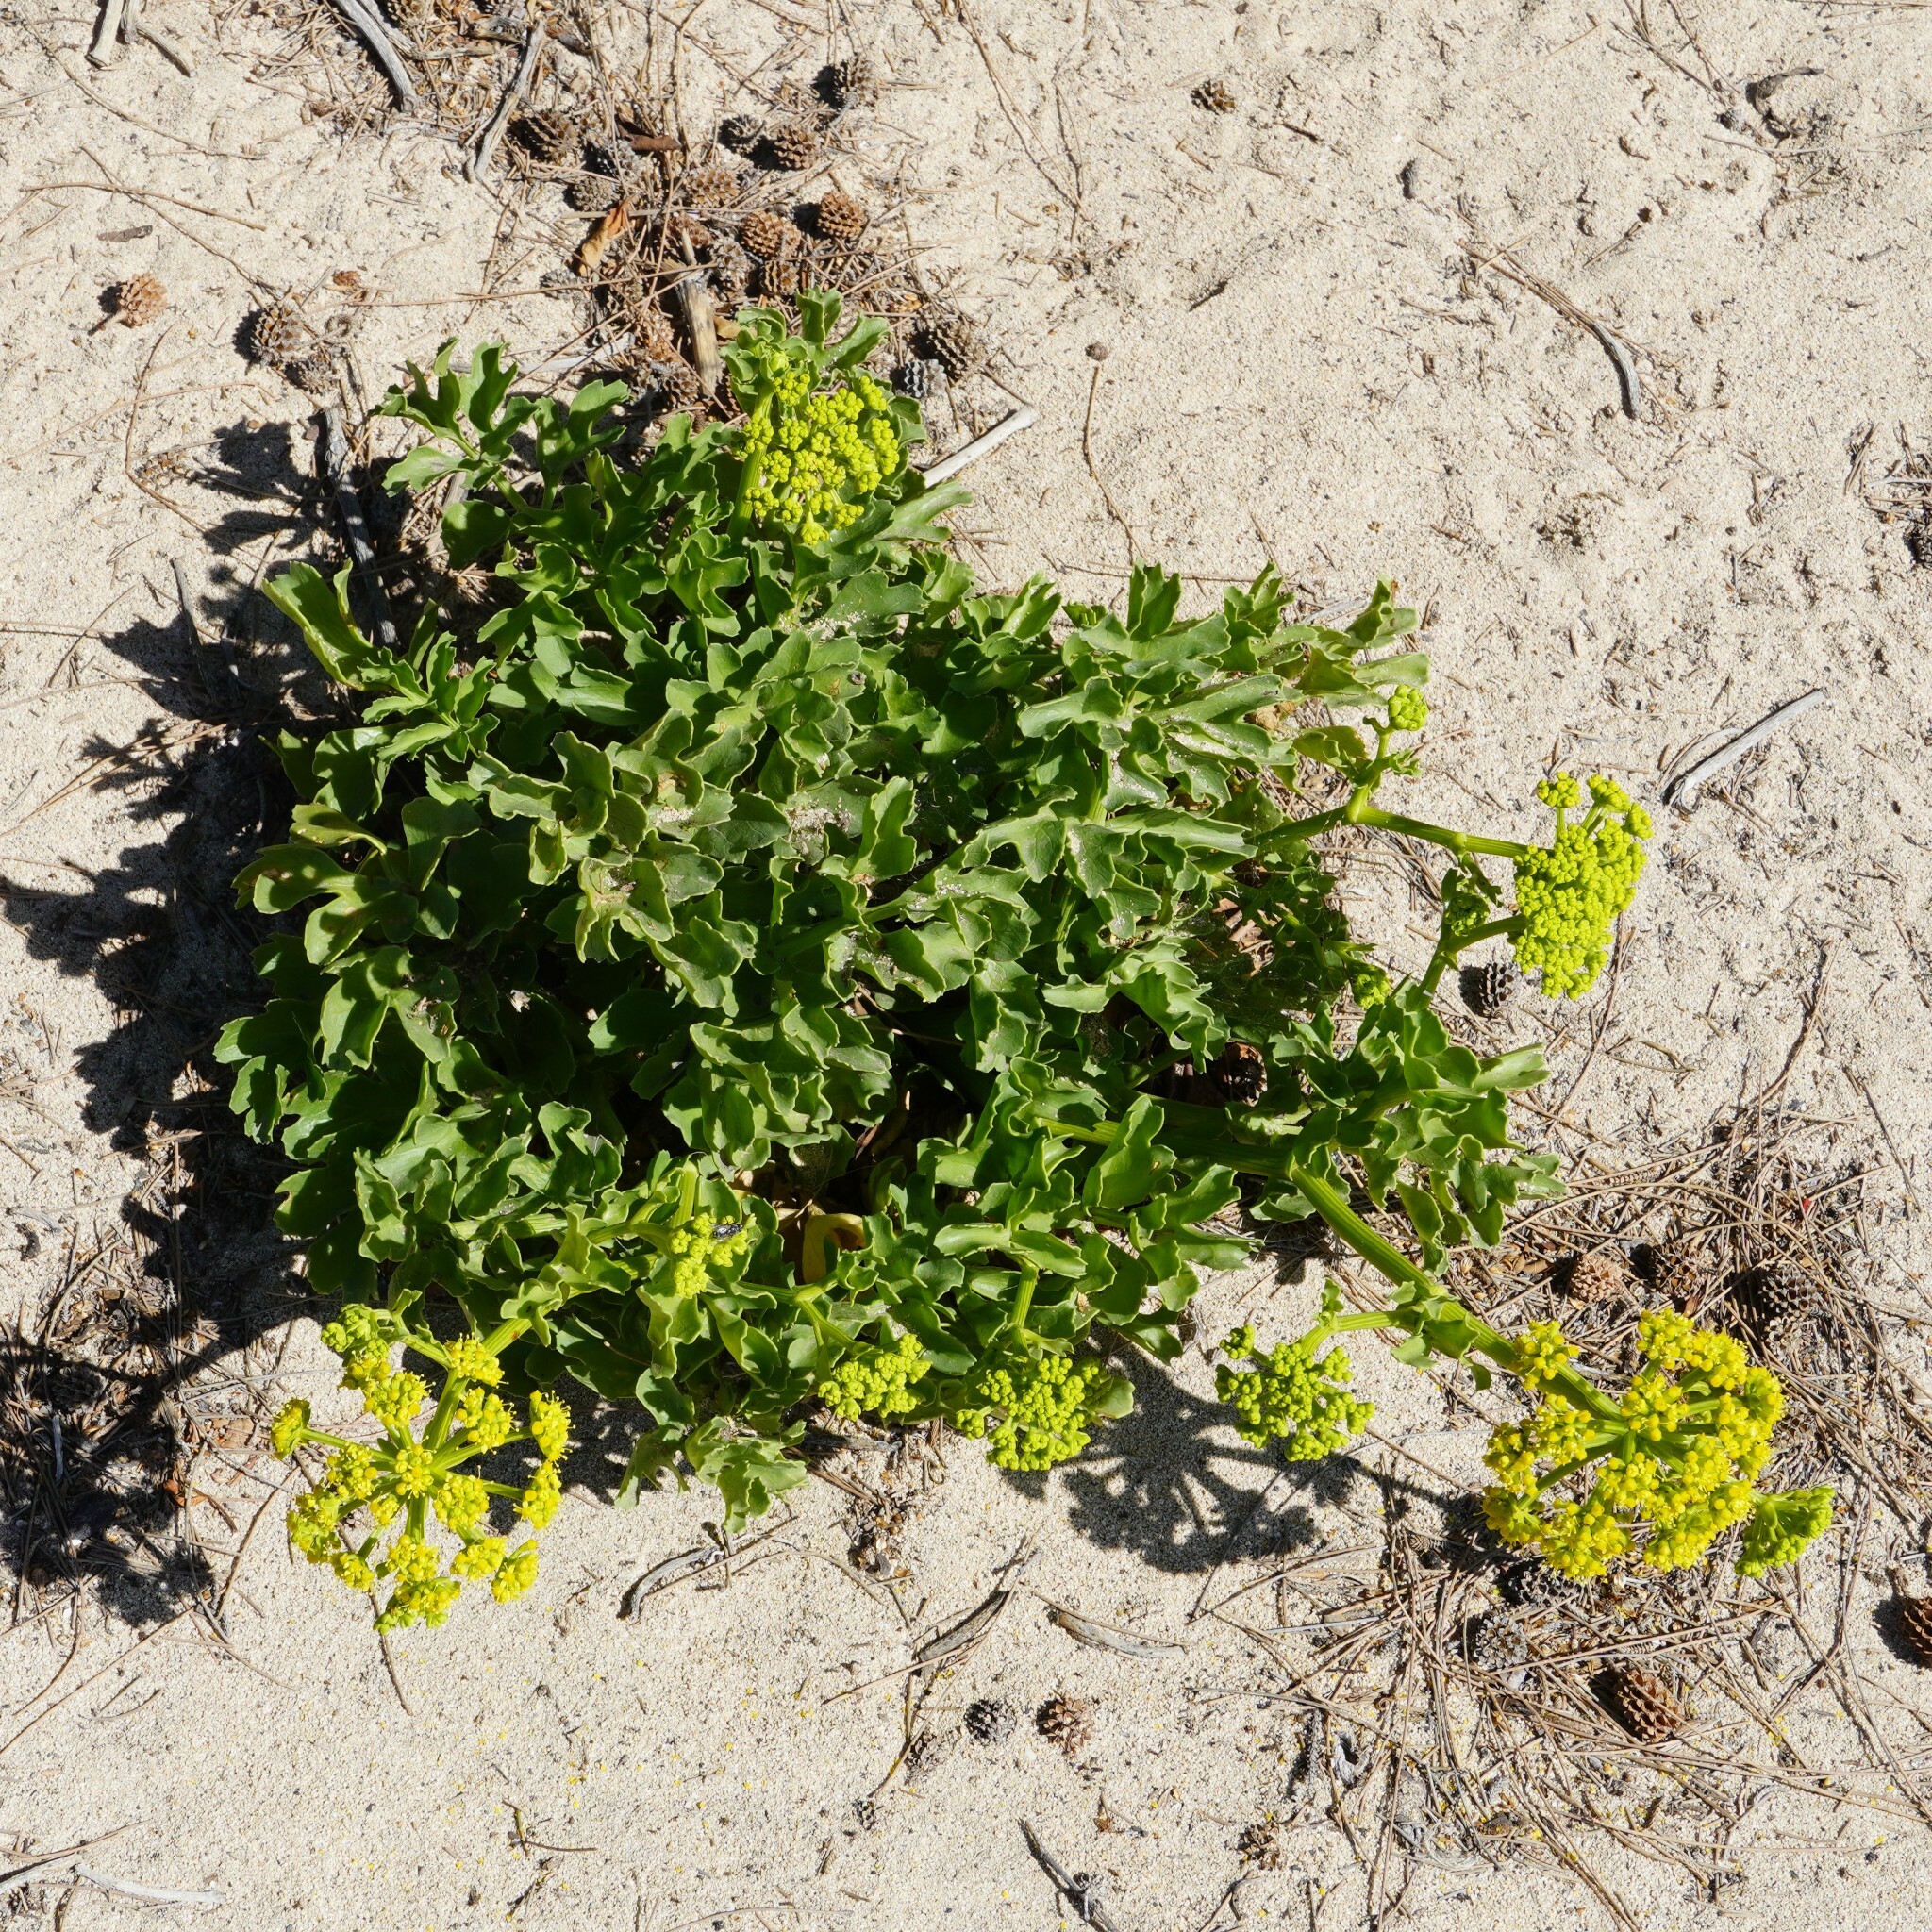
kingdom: Plantae
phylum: Tracheophyta
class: Magnoliopsida
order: Apiales
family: Apiaceae
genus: Astydamia
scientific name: Astydamia latifolia
